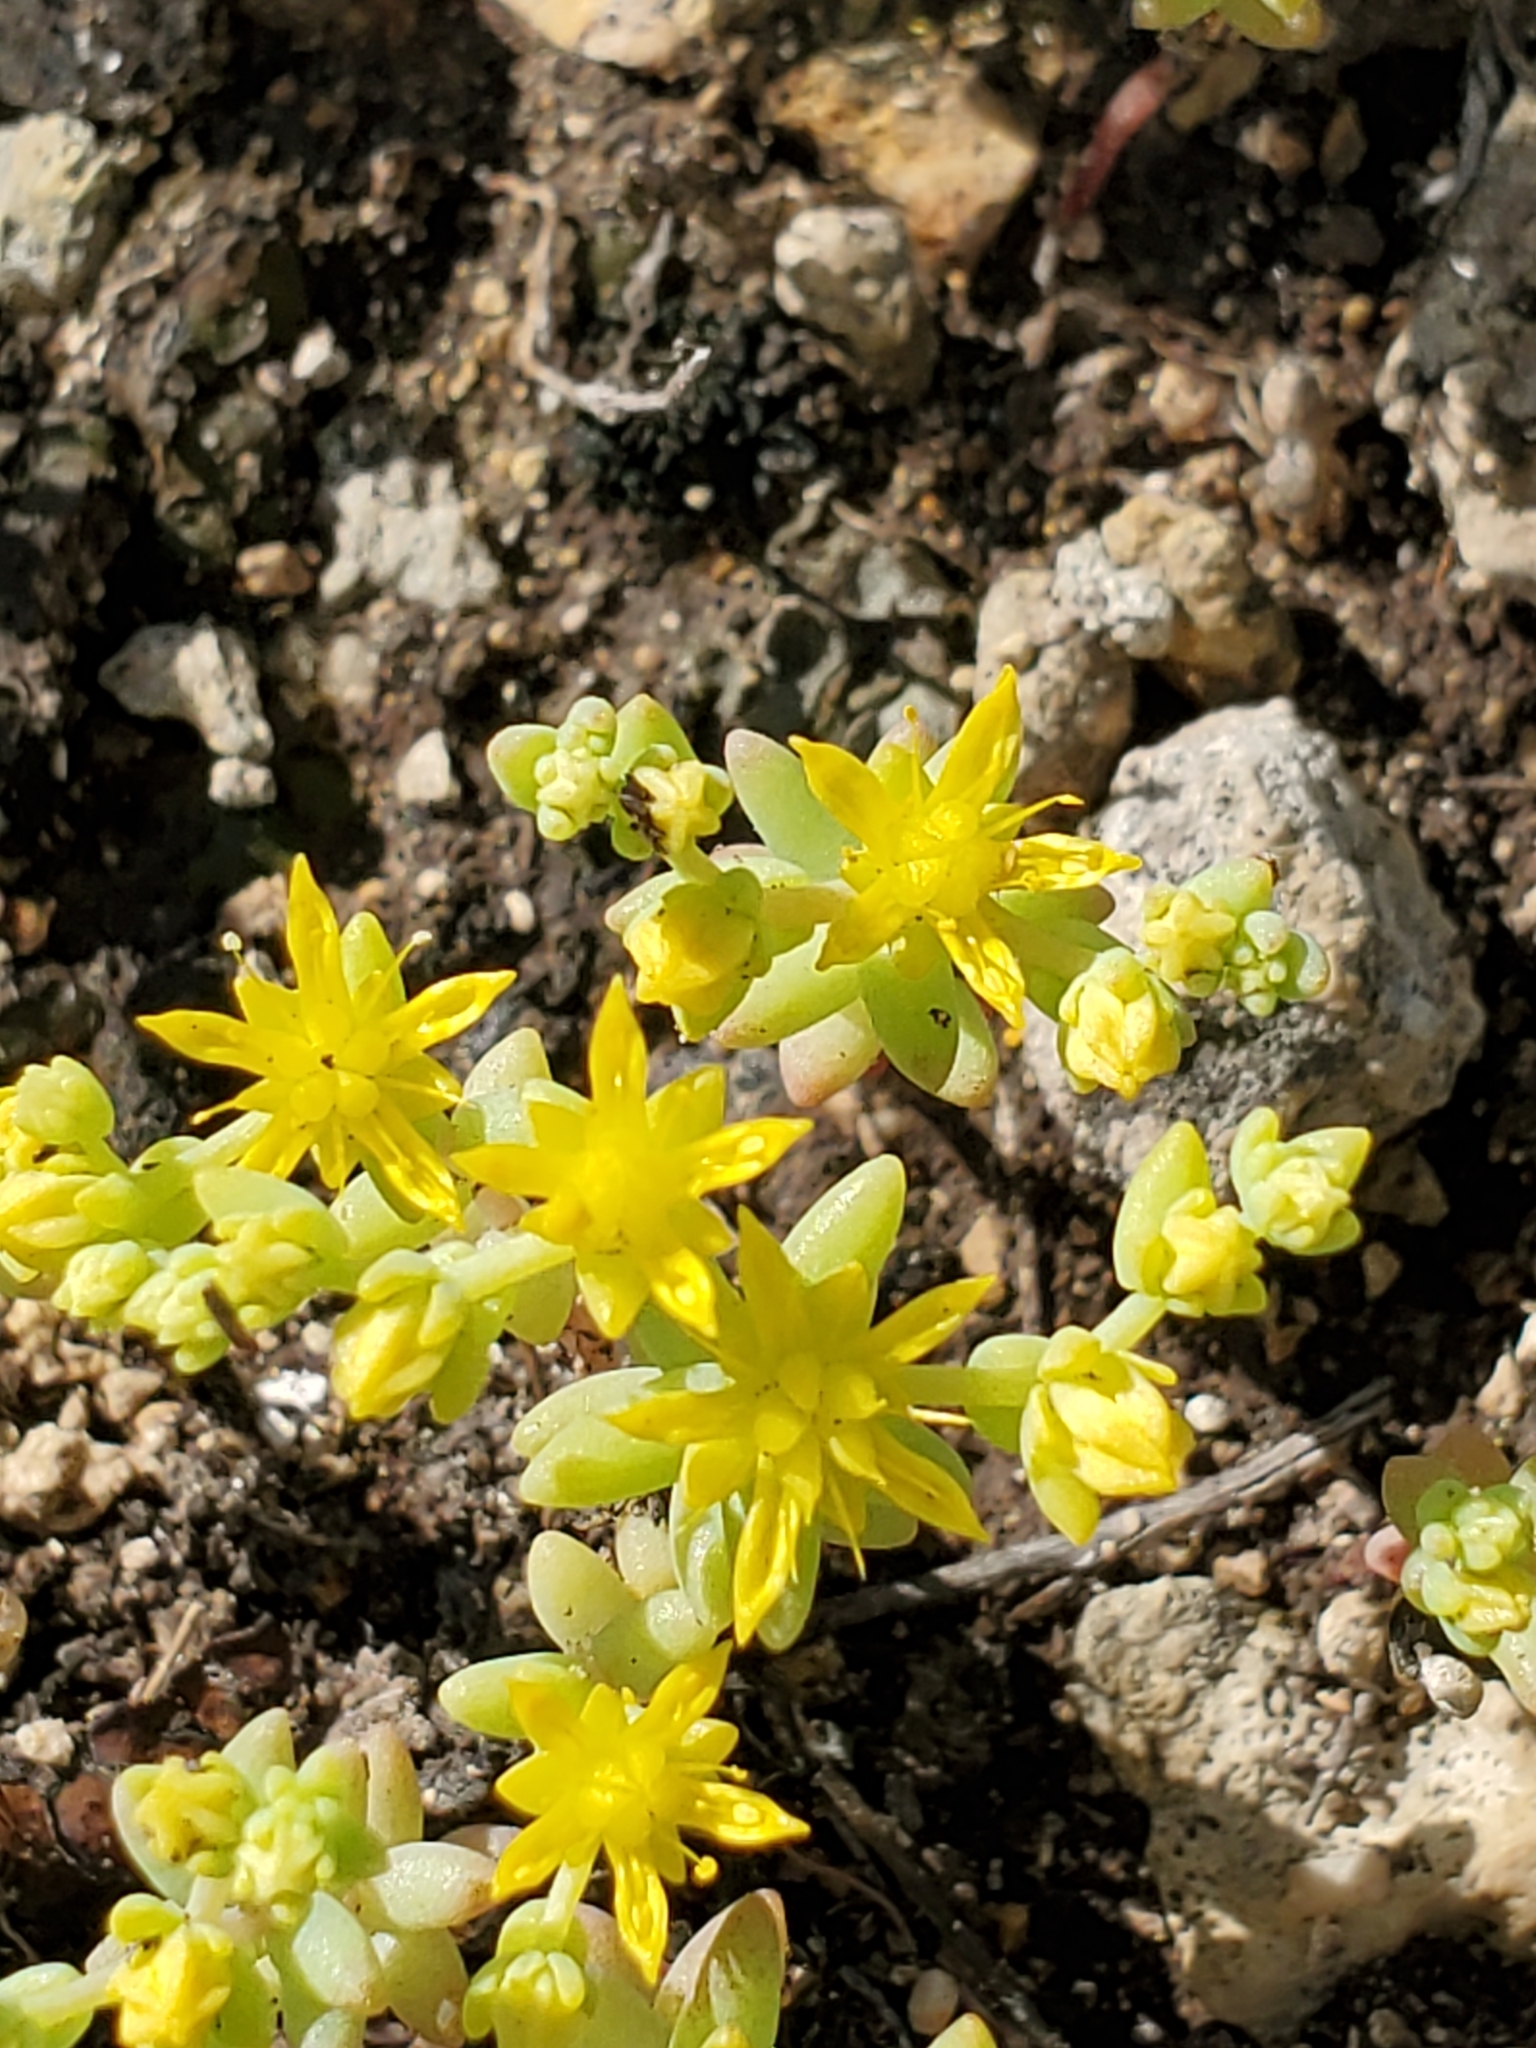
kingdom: Plantae
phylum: Tracheophyta
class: Magnoliopsida
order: Saxifragales
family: Crassulaceae
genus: Sedum
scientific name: Sedum nuttallii
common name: Yellow stonecrop
